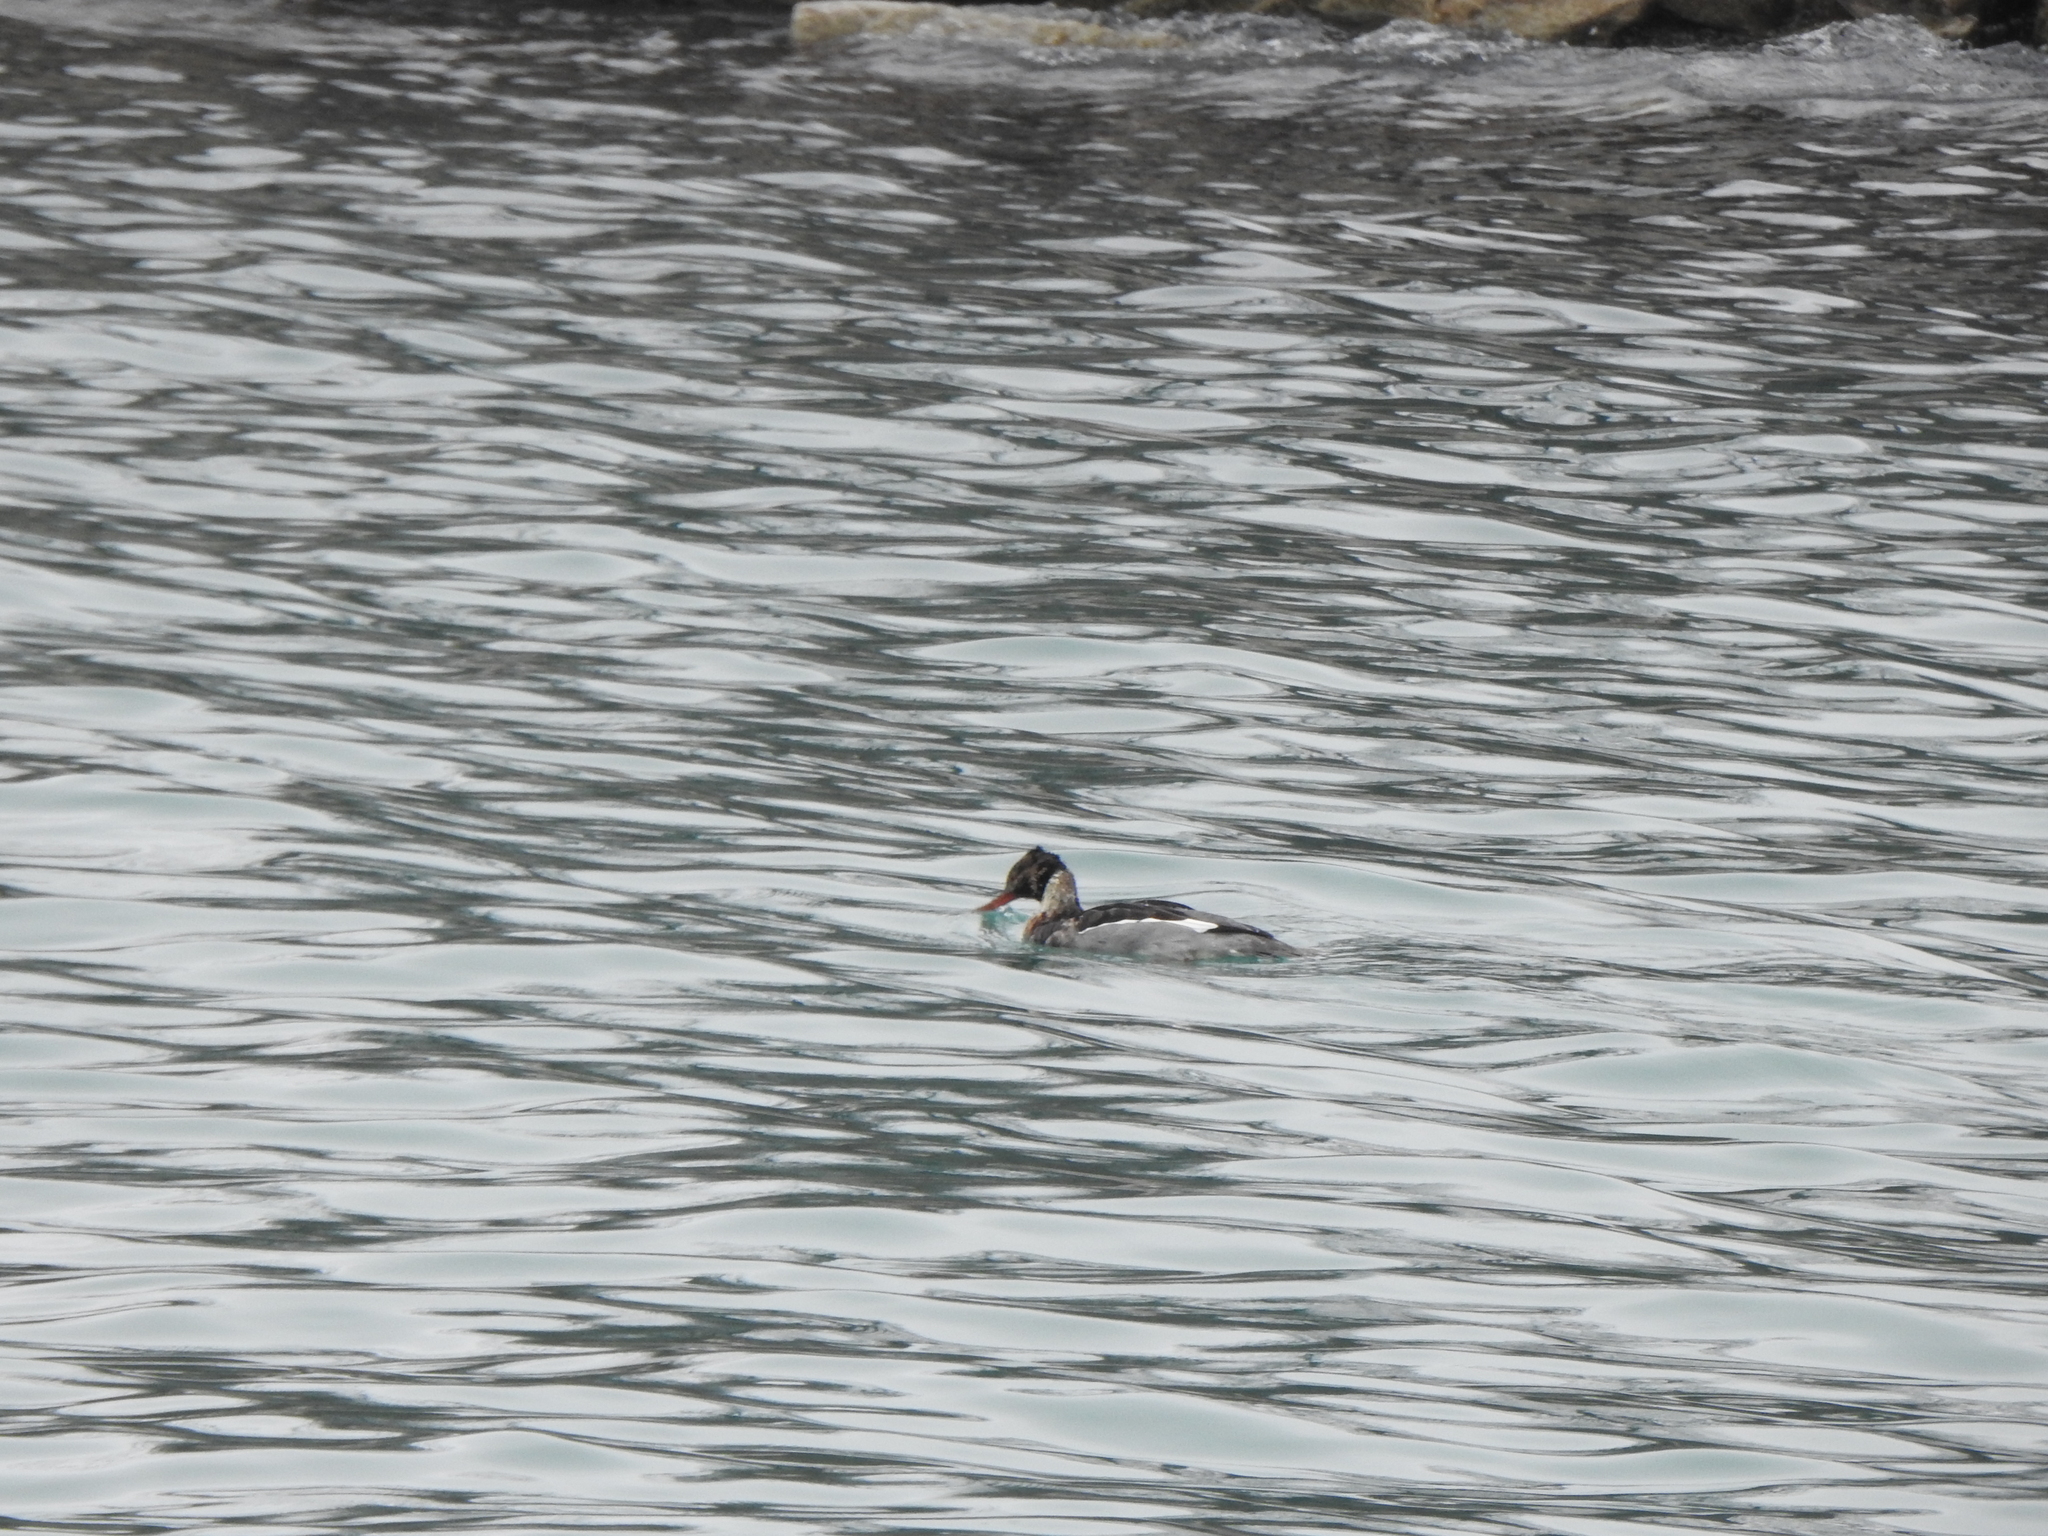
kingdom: Animalia
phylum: Chordata
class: Aves
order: Anseriformes
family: Anatidae
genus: Mergus
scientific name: Mergus serrator
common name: Red-breasted merganser
